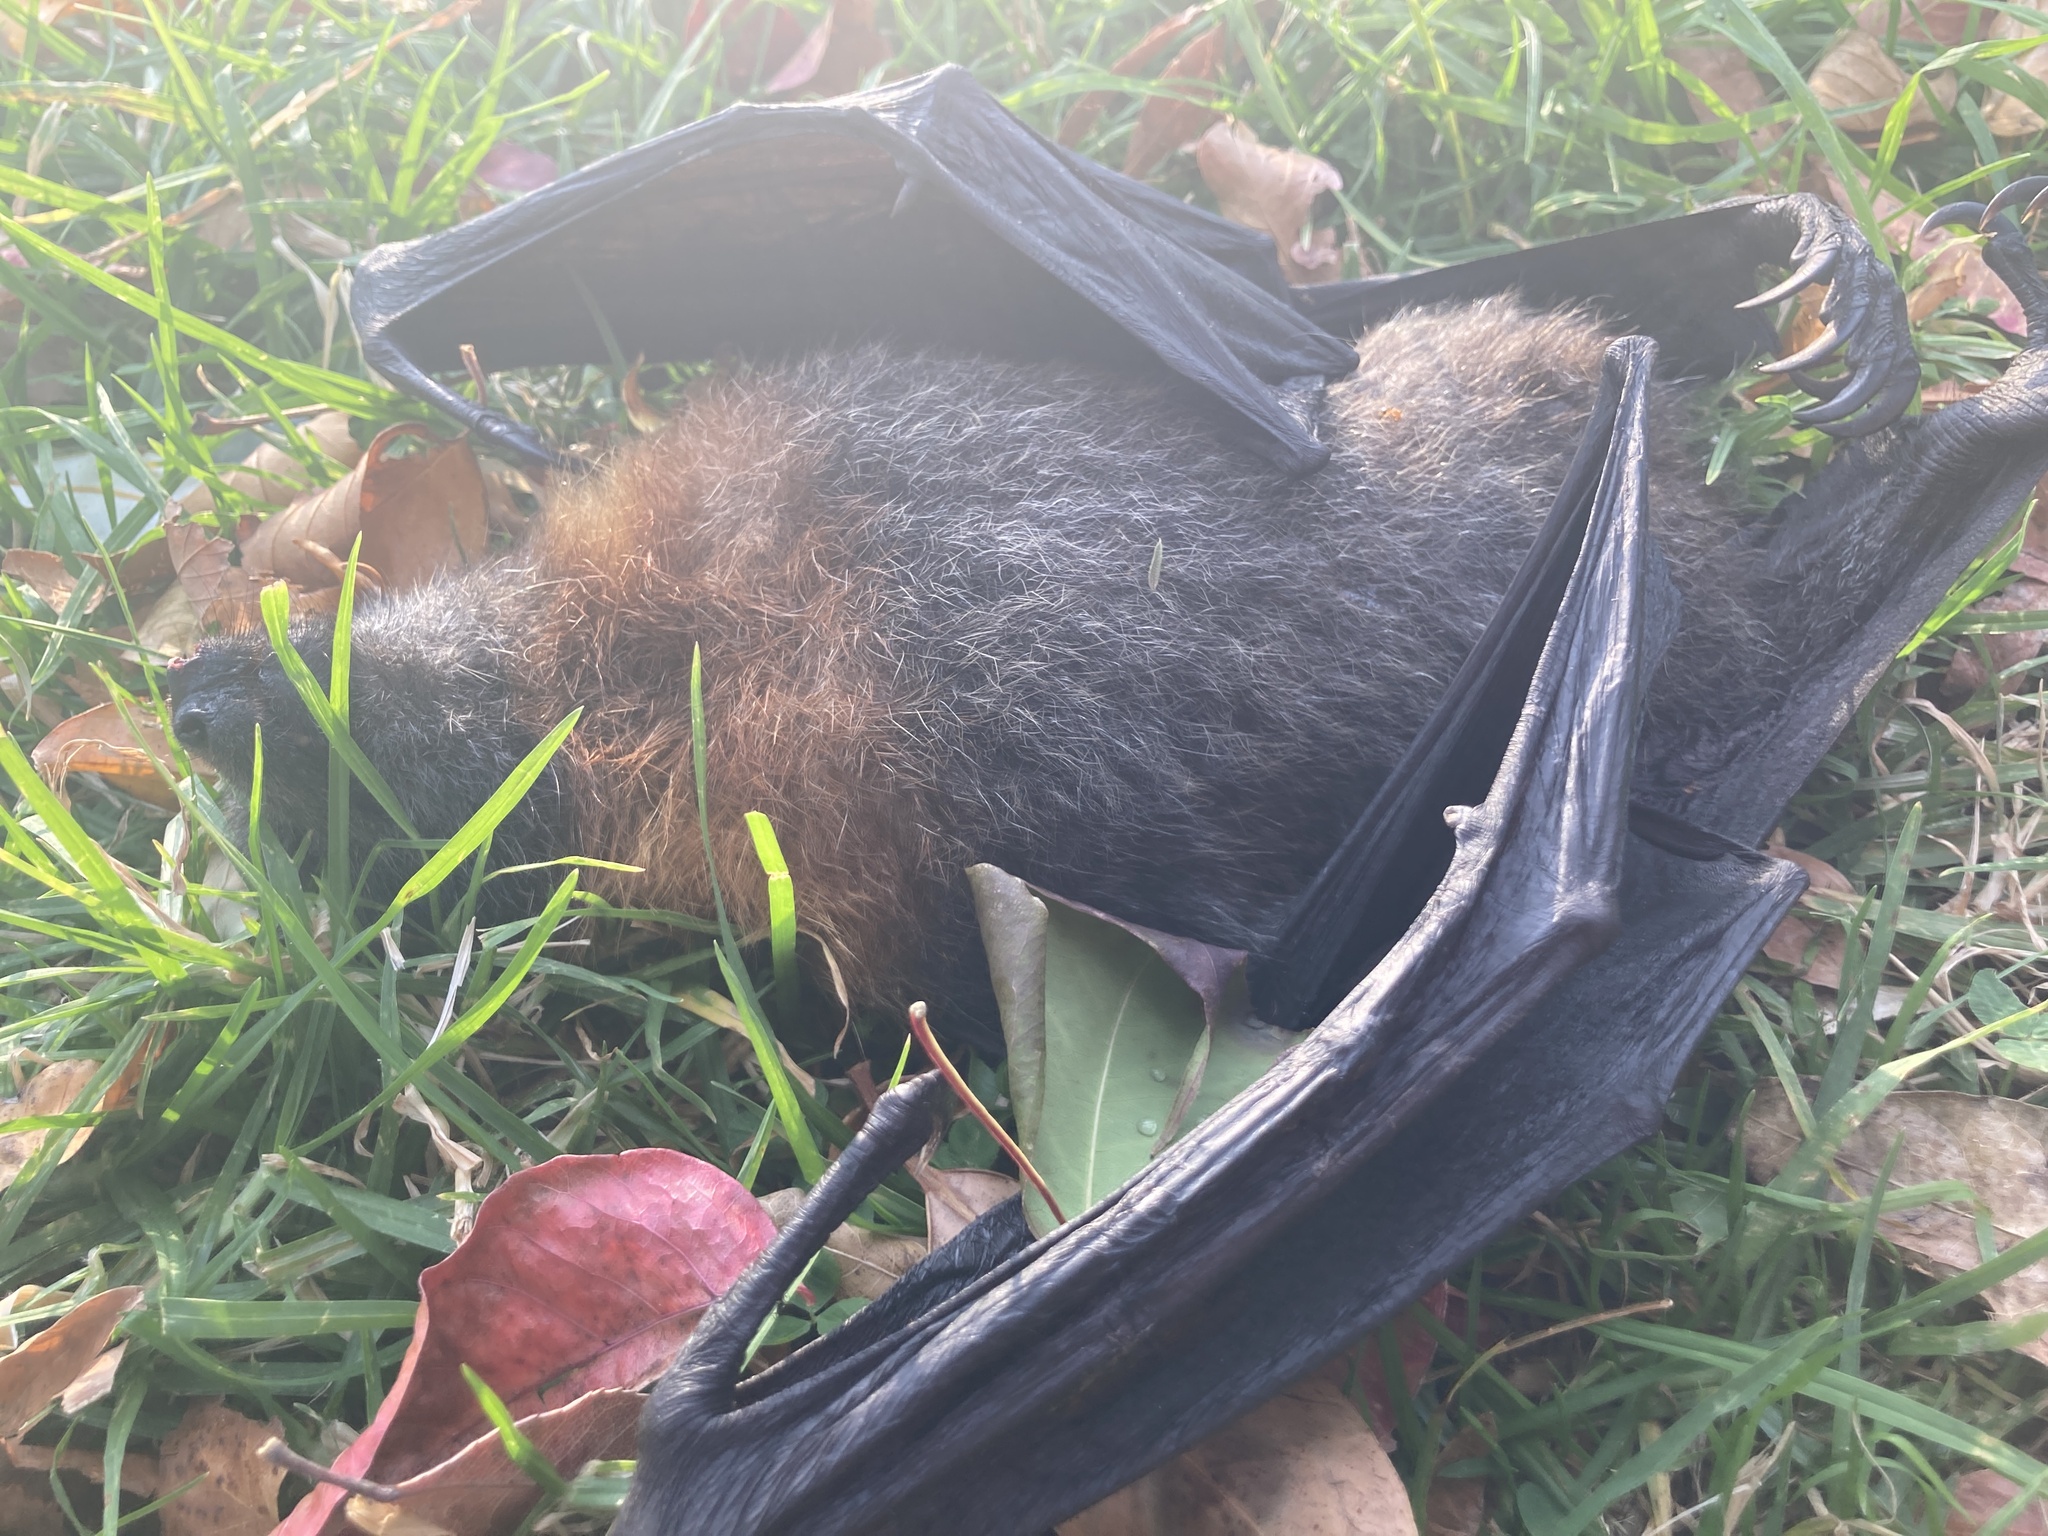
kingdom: Animalia
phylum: Chordata
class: Mammalia
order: Chiroptera
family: Pteropodidae
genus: Pteropus
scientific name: Pteropus poliocephalus
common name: Gray-headed flying fox
